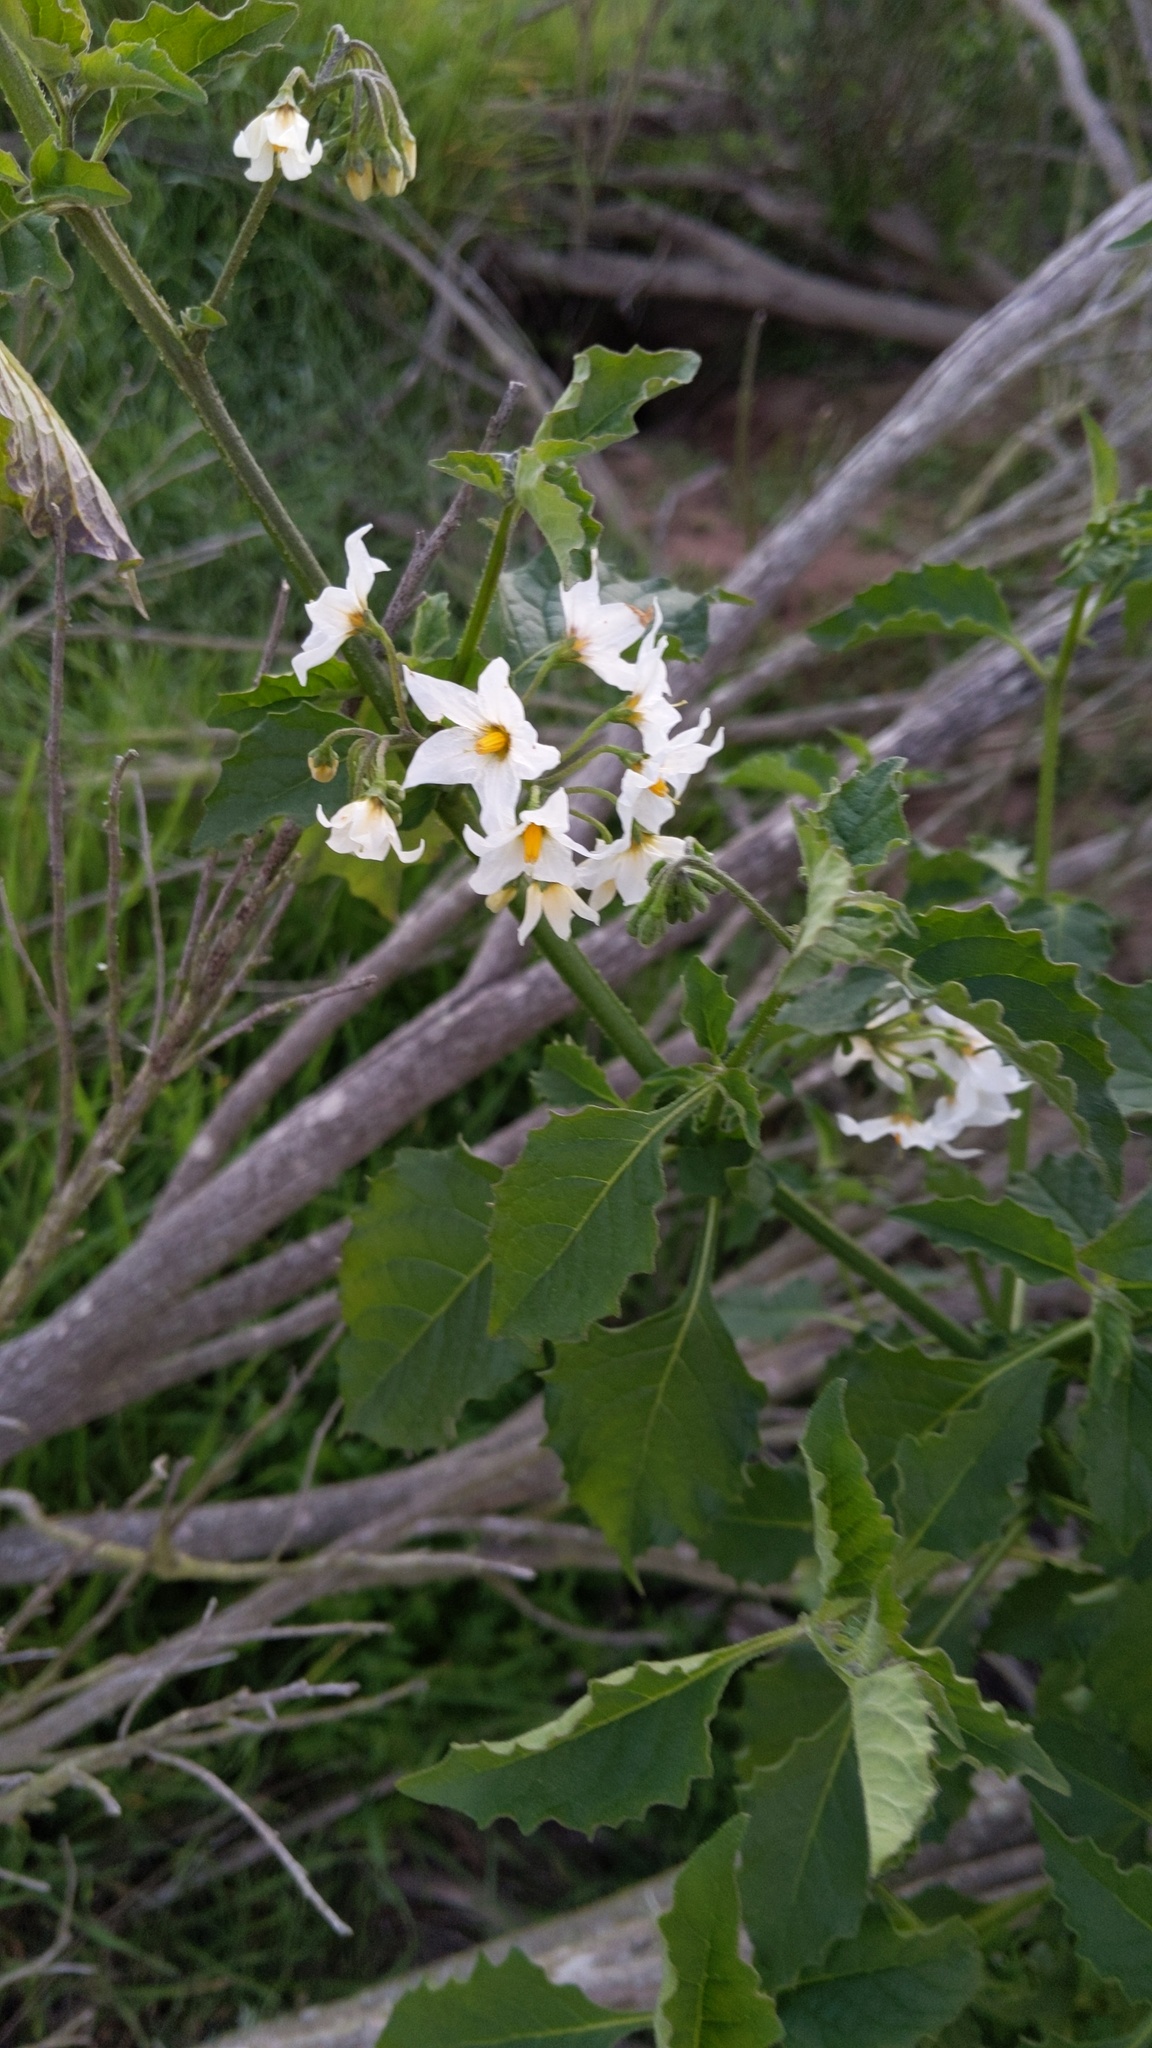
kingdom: Plantae
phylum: Tracheophyta
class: Magnoliopsida
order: Solanales
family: Solanaceae
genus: Solanum
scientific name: Solanum douglasii
